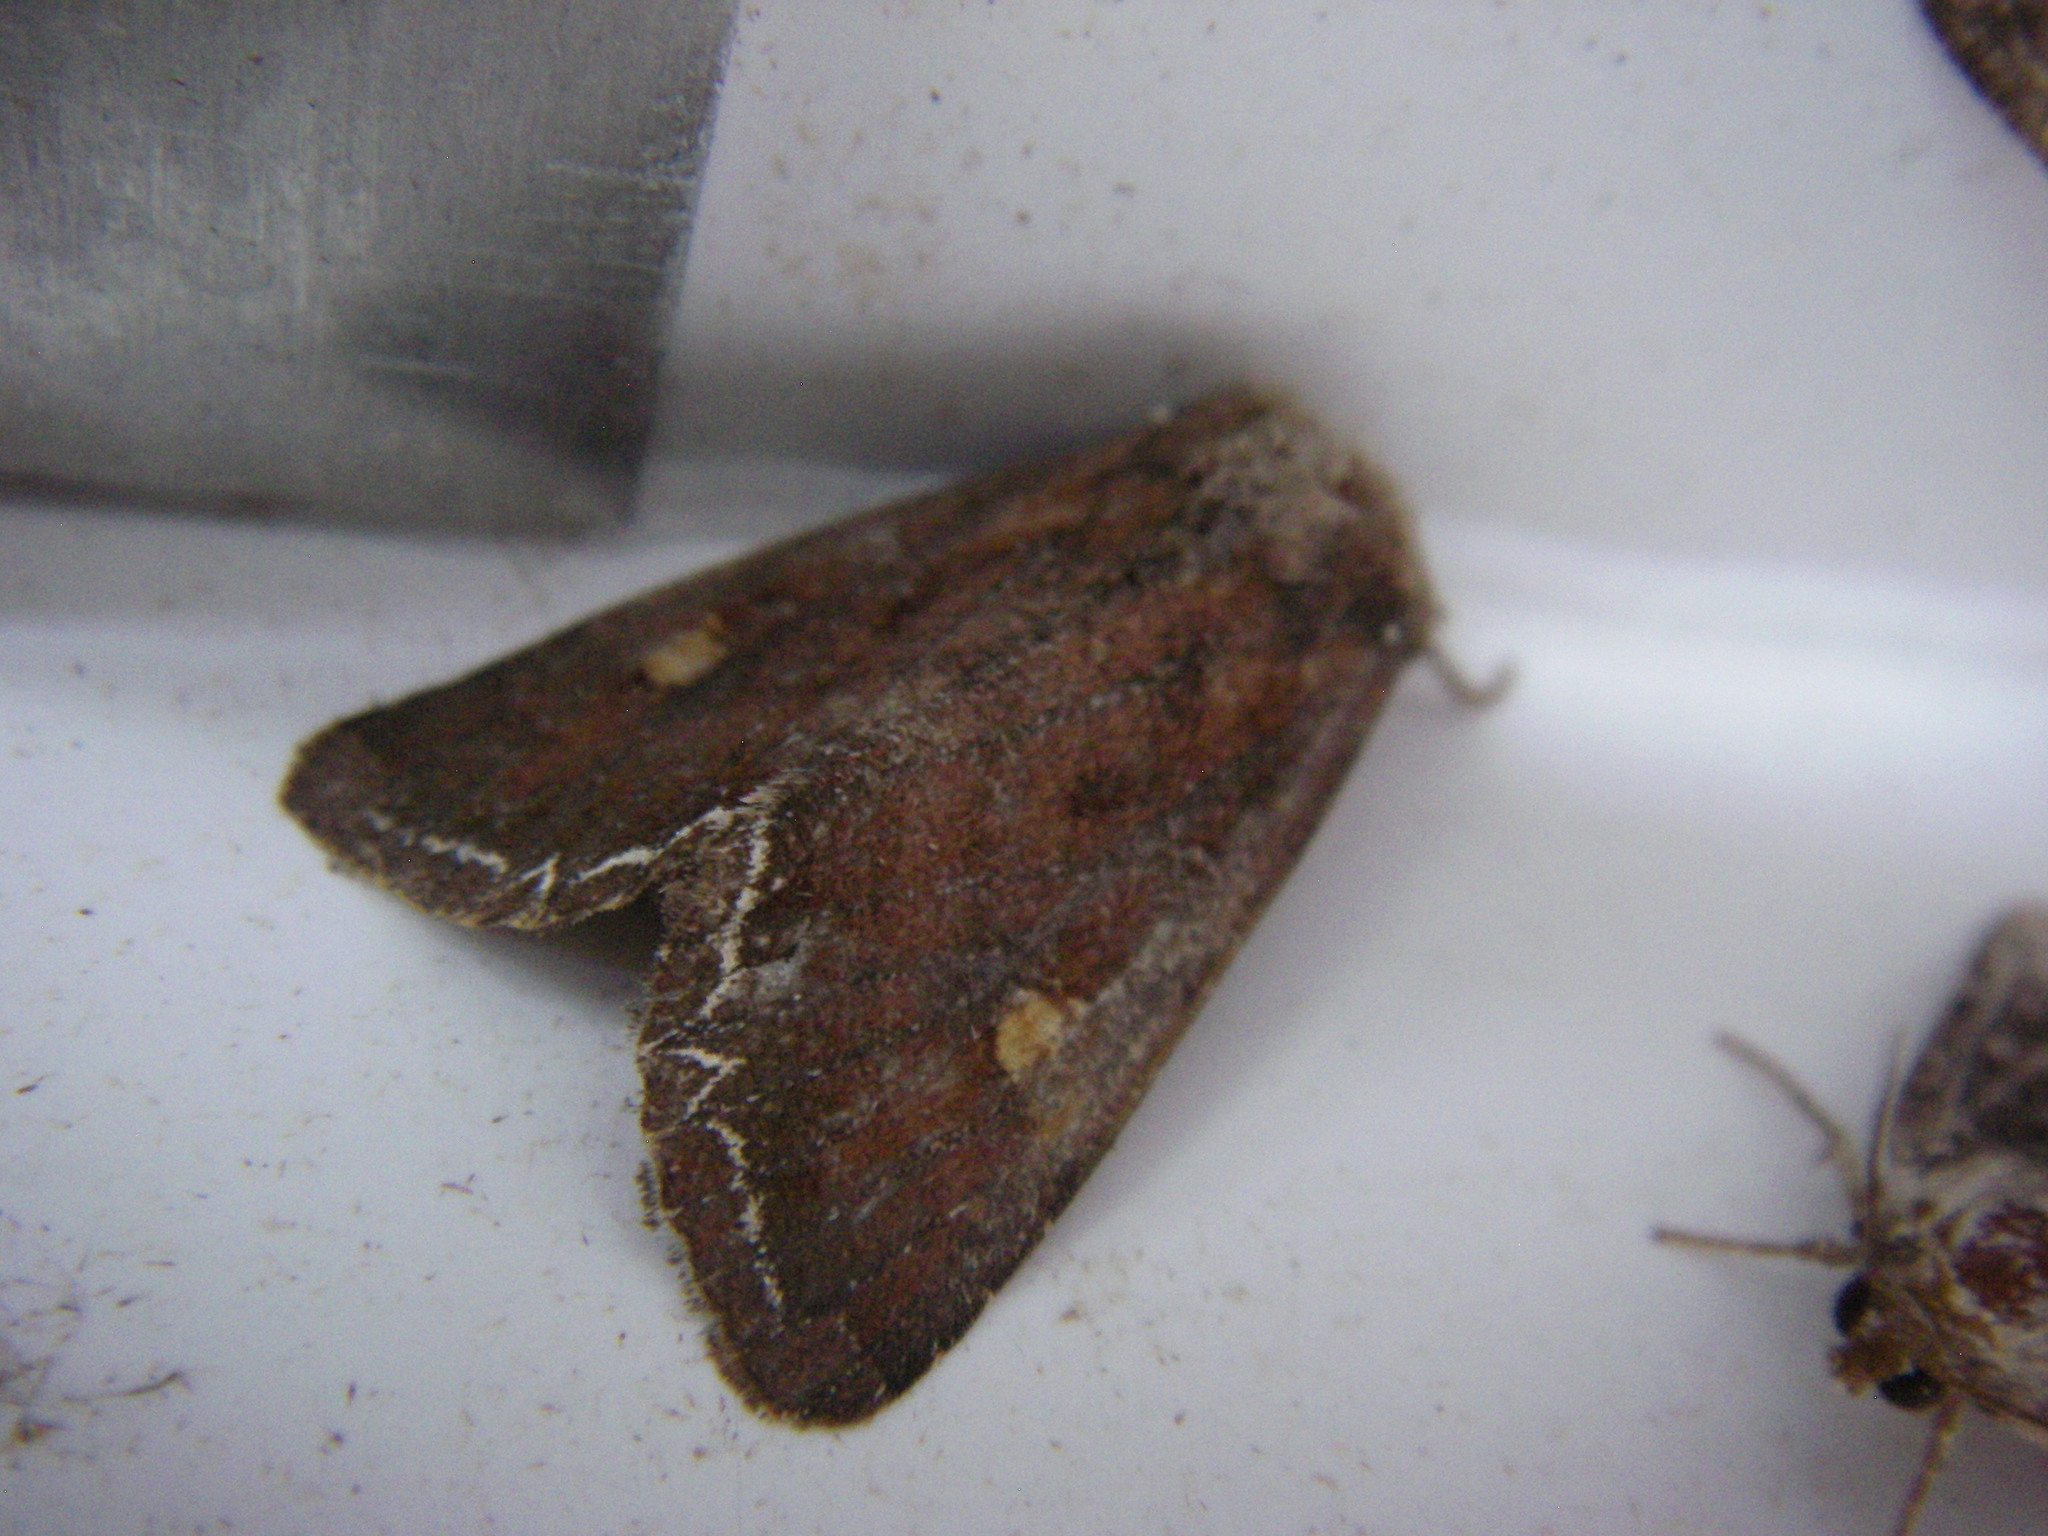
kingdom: Animalia
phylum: Arthropoda
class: Insecta
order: Lepidoptera
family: Noctuidae
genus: Lacanobia
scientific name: Lacanobia oleracea
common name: Bright-line brown-eye
